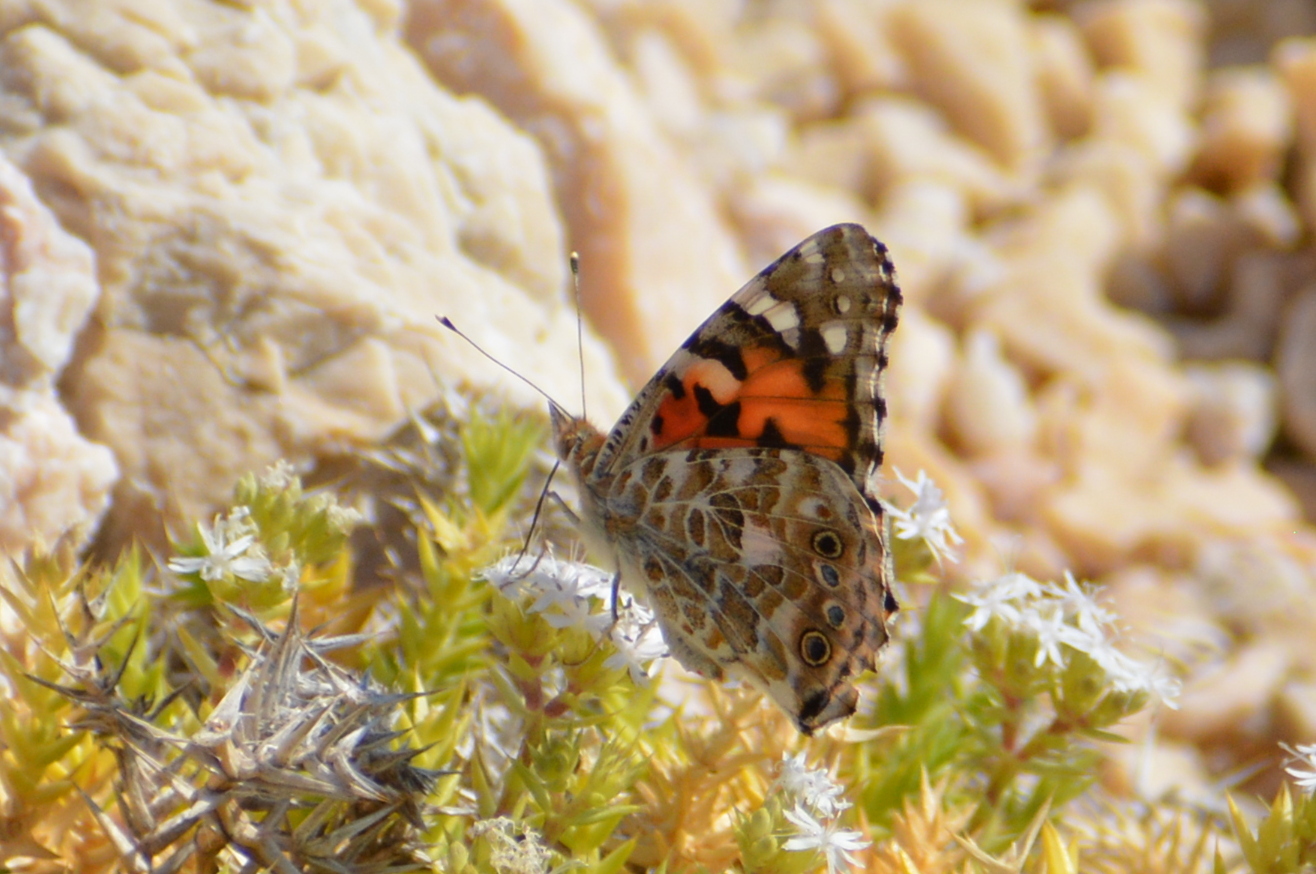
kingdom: Animalia
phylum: Arthropoda
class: Insecta
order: Lepidoptera
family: Nymphalidae
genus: Vanessa
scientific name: Vanessa cardui
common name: Painted lady
